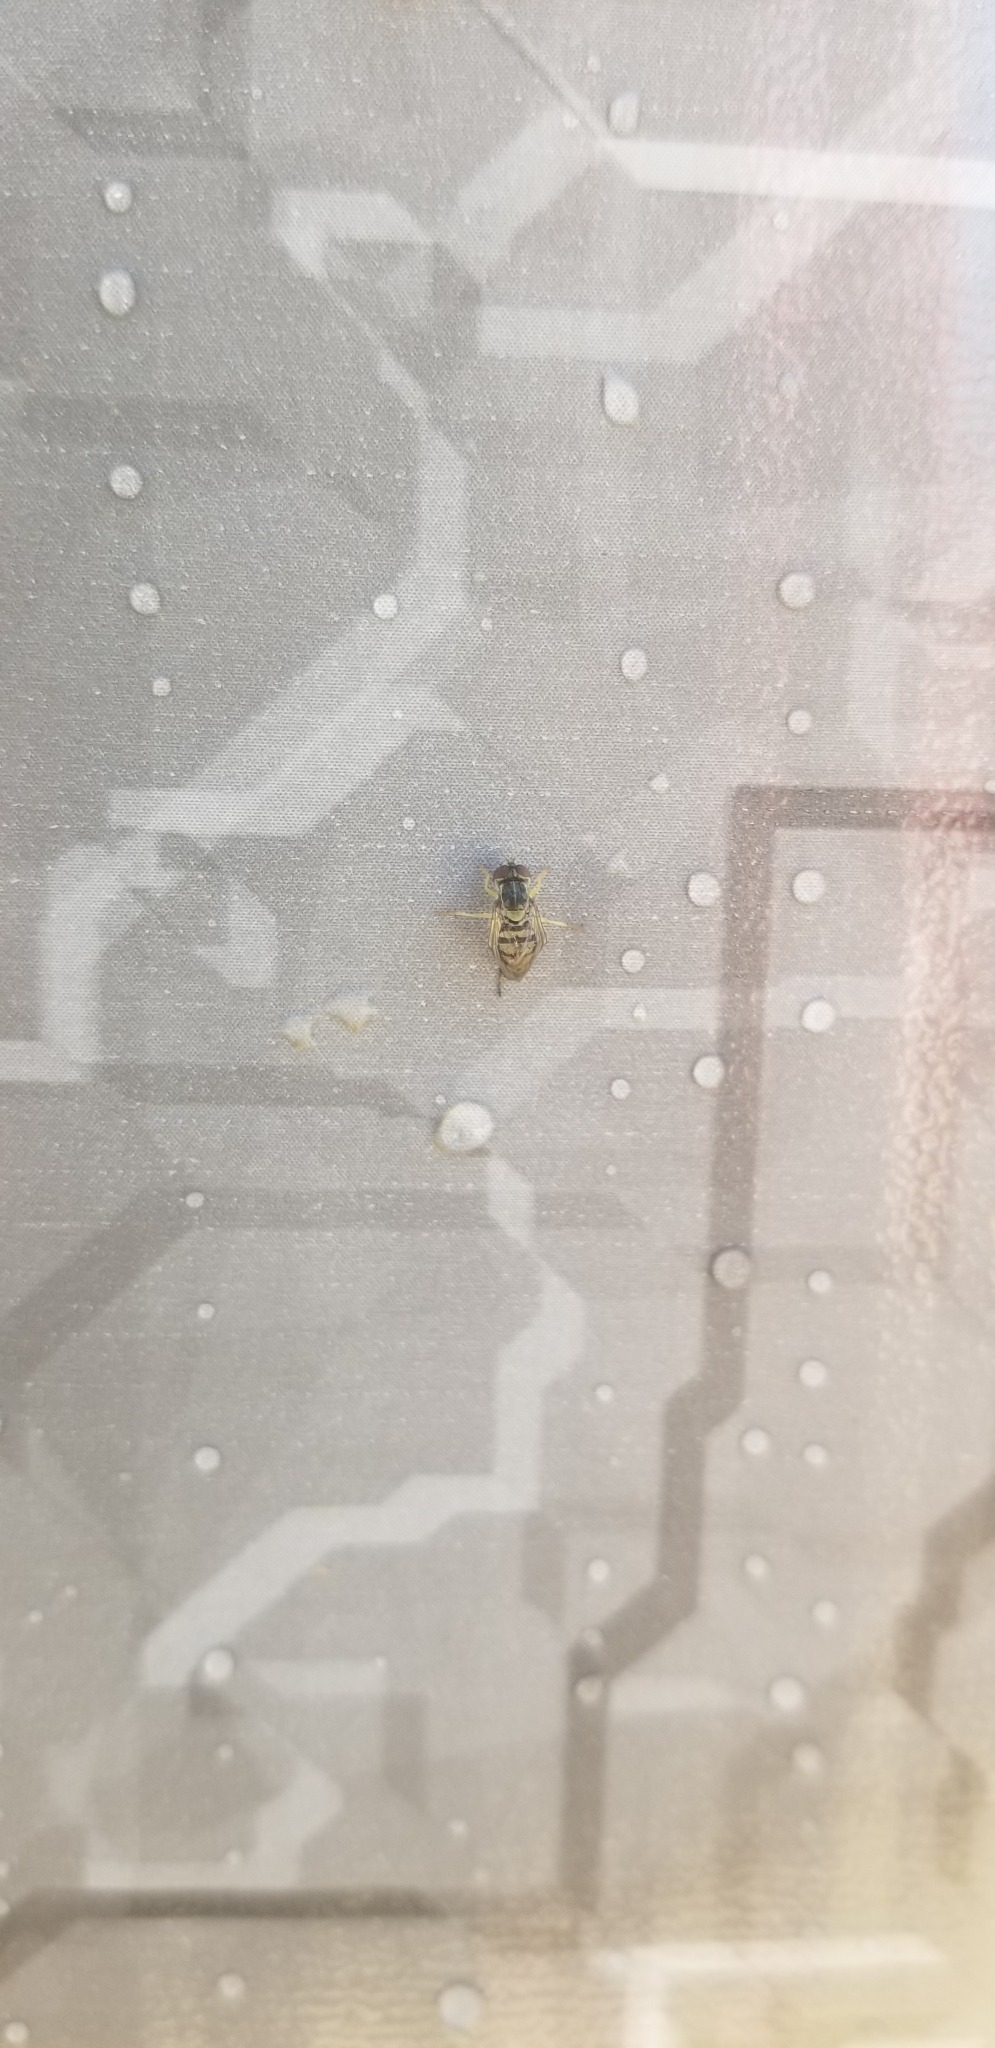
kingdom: Animalia
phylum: Arthropoda
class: Insecta
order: Diptera
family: Syrphidae
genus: Toxomerus
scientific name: Toxomerus marginatus
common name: Syrphid fly
